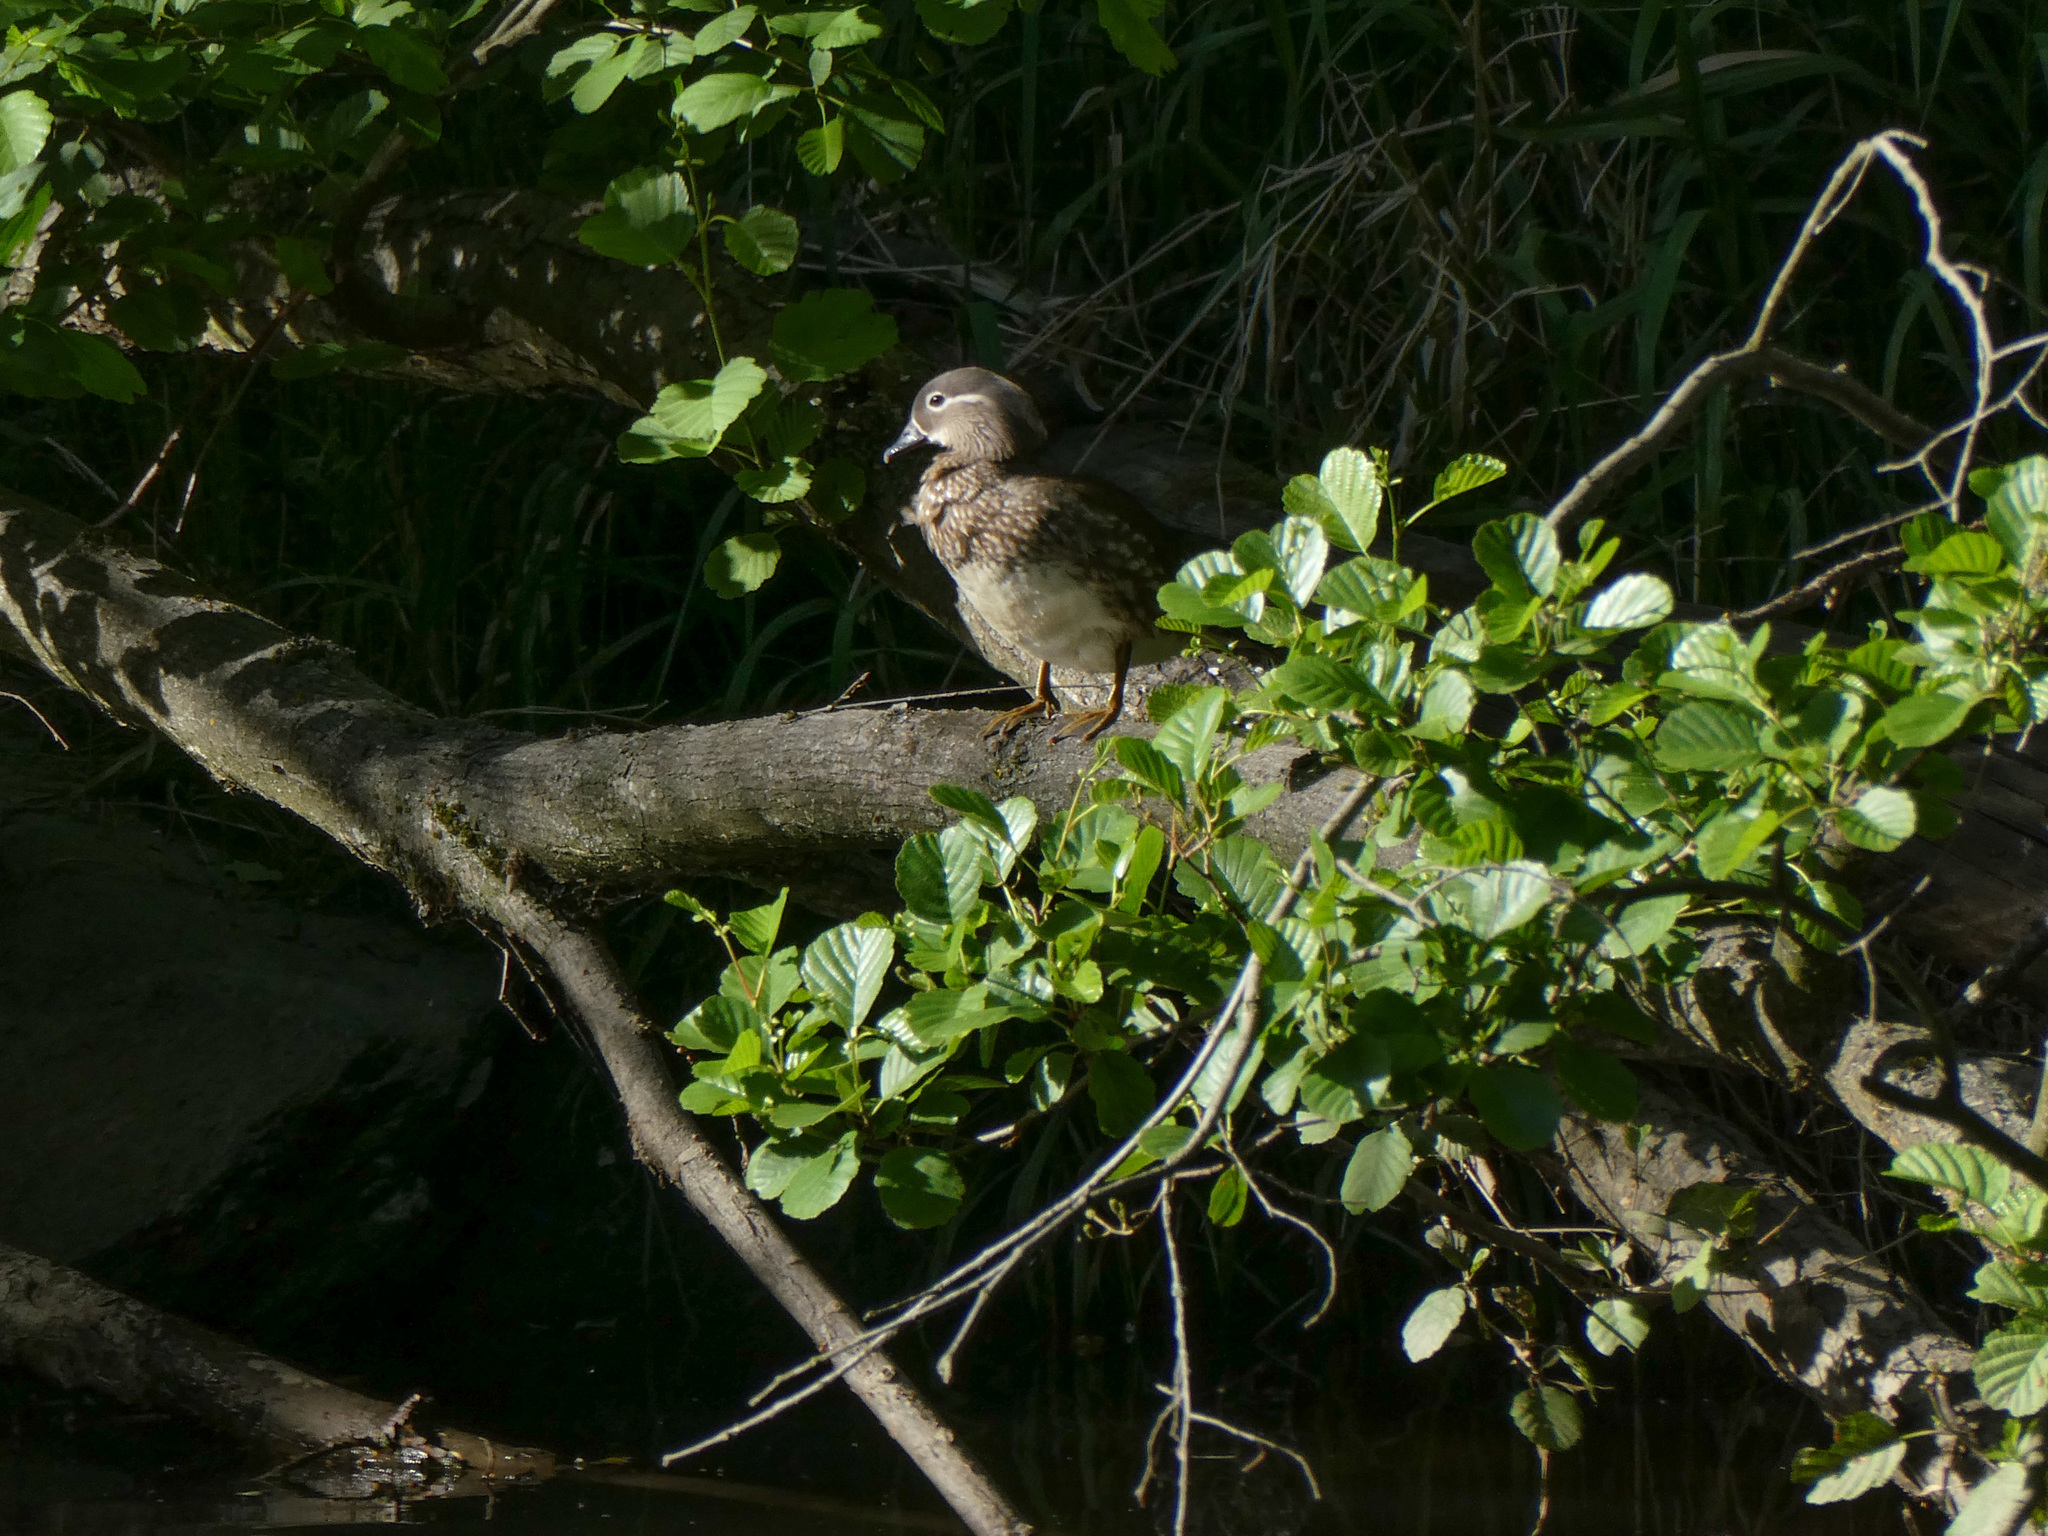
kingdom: Animalia
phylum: Chordata
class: Aves
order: Anseriformes
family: Anatidae
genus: Aix
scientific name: Aix galericulata
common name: Mandarin duck
